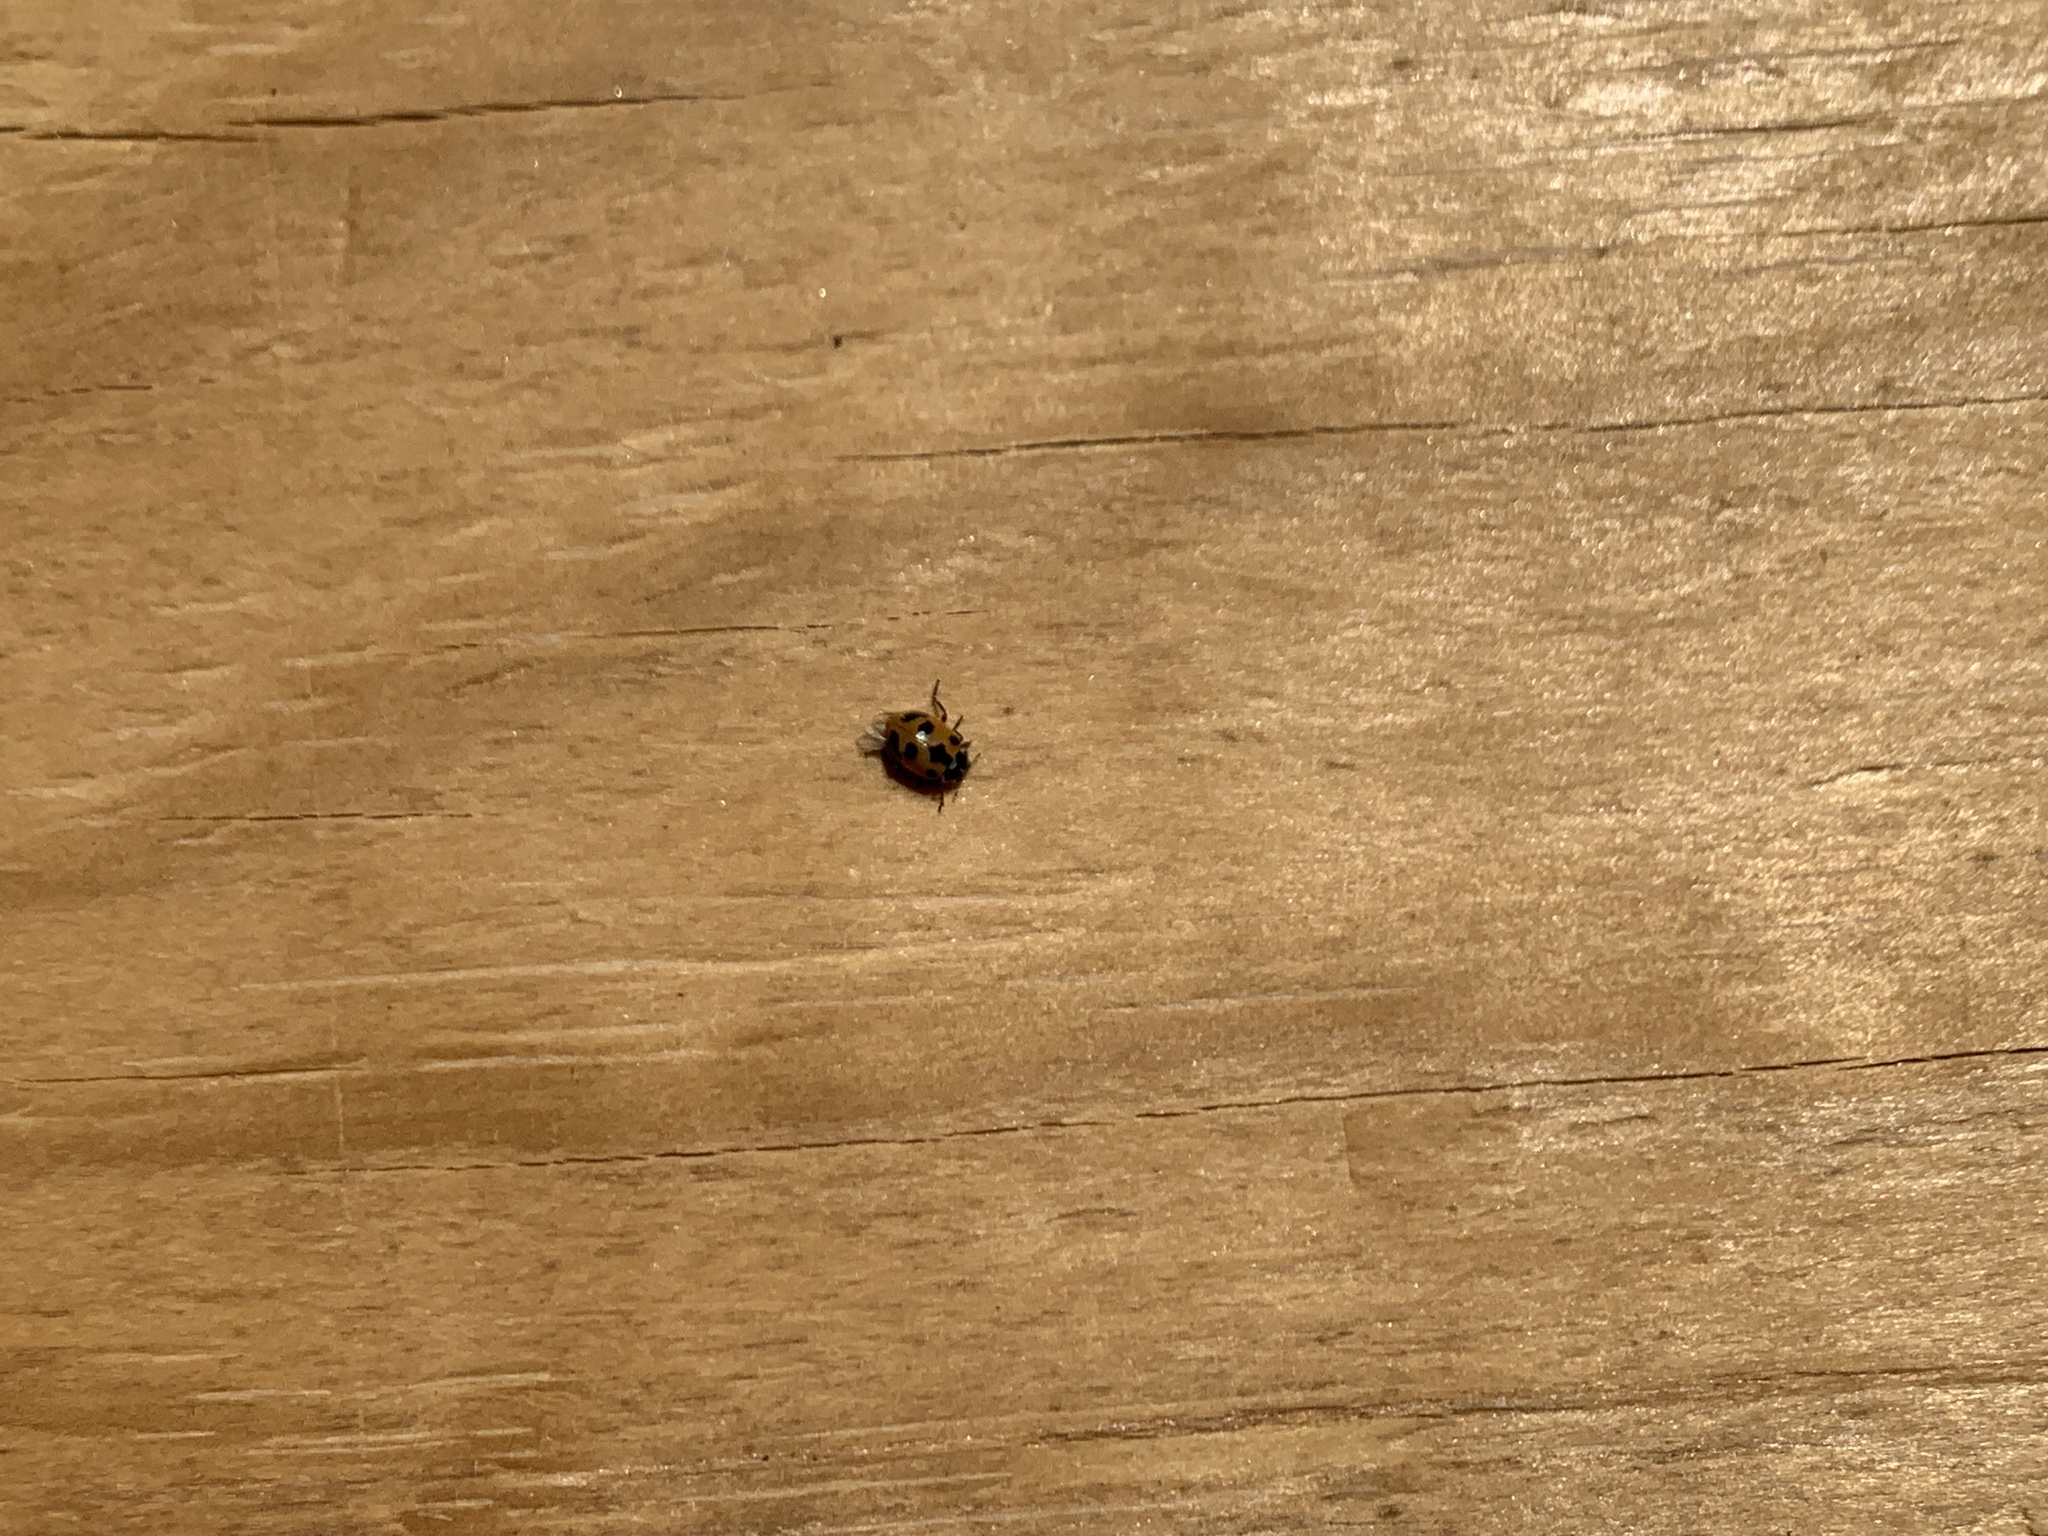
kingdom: Animalia
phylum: Arthropoda
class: Insecta
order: Coleoptera
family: Coccinellidae
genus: Hippodamia
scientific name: Hippodamia parenthesis
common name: Parenthesis lady beetle
